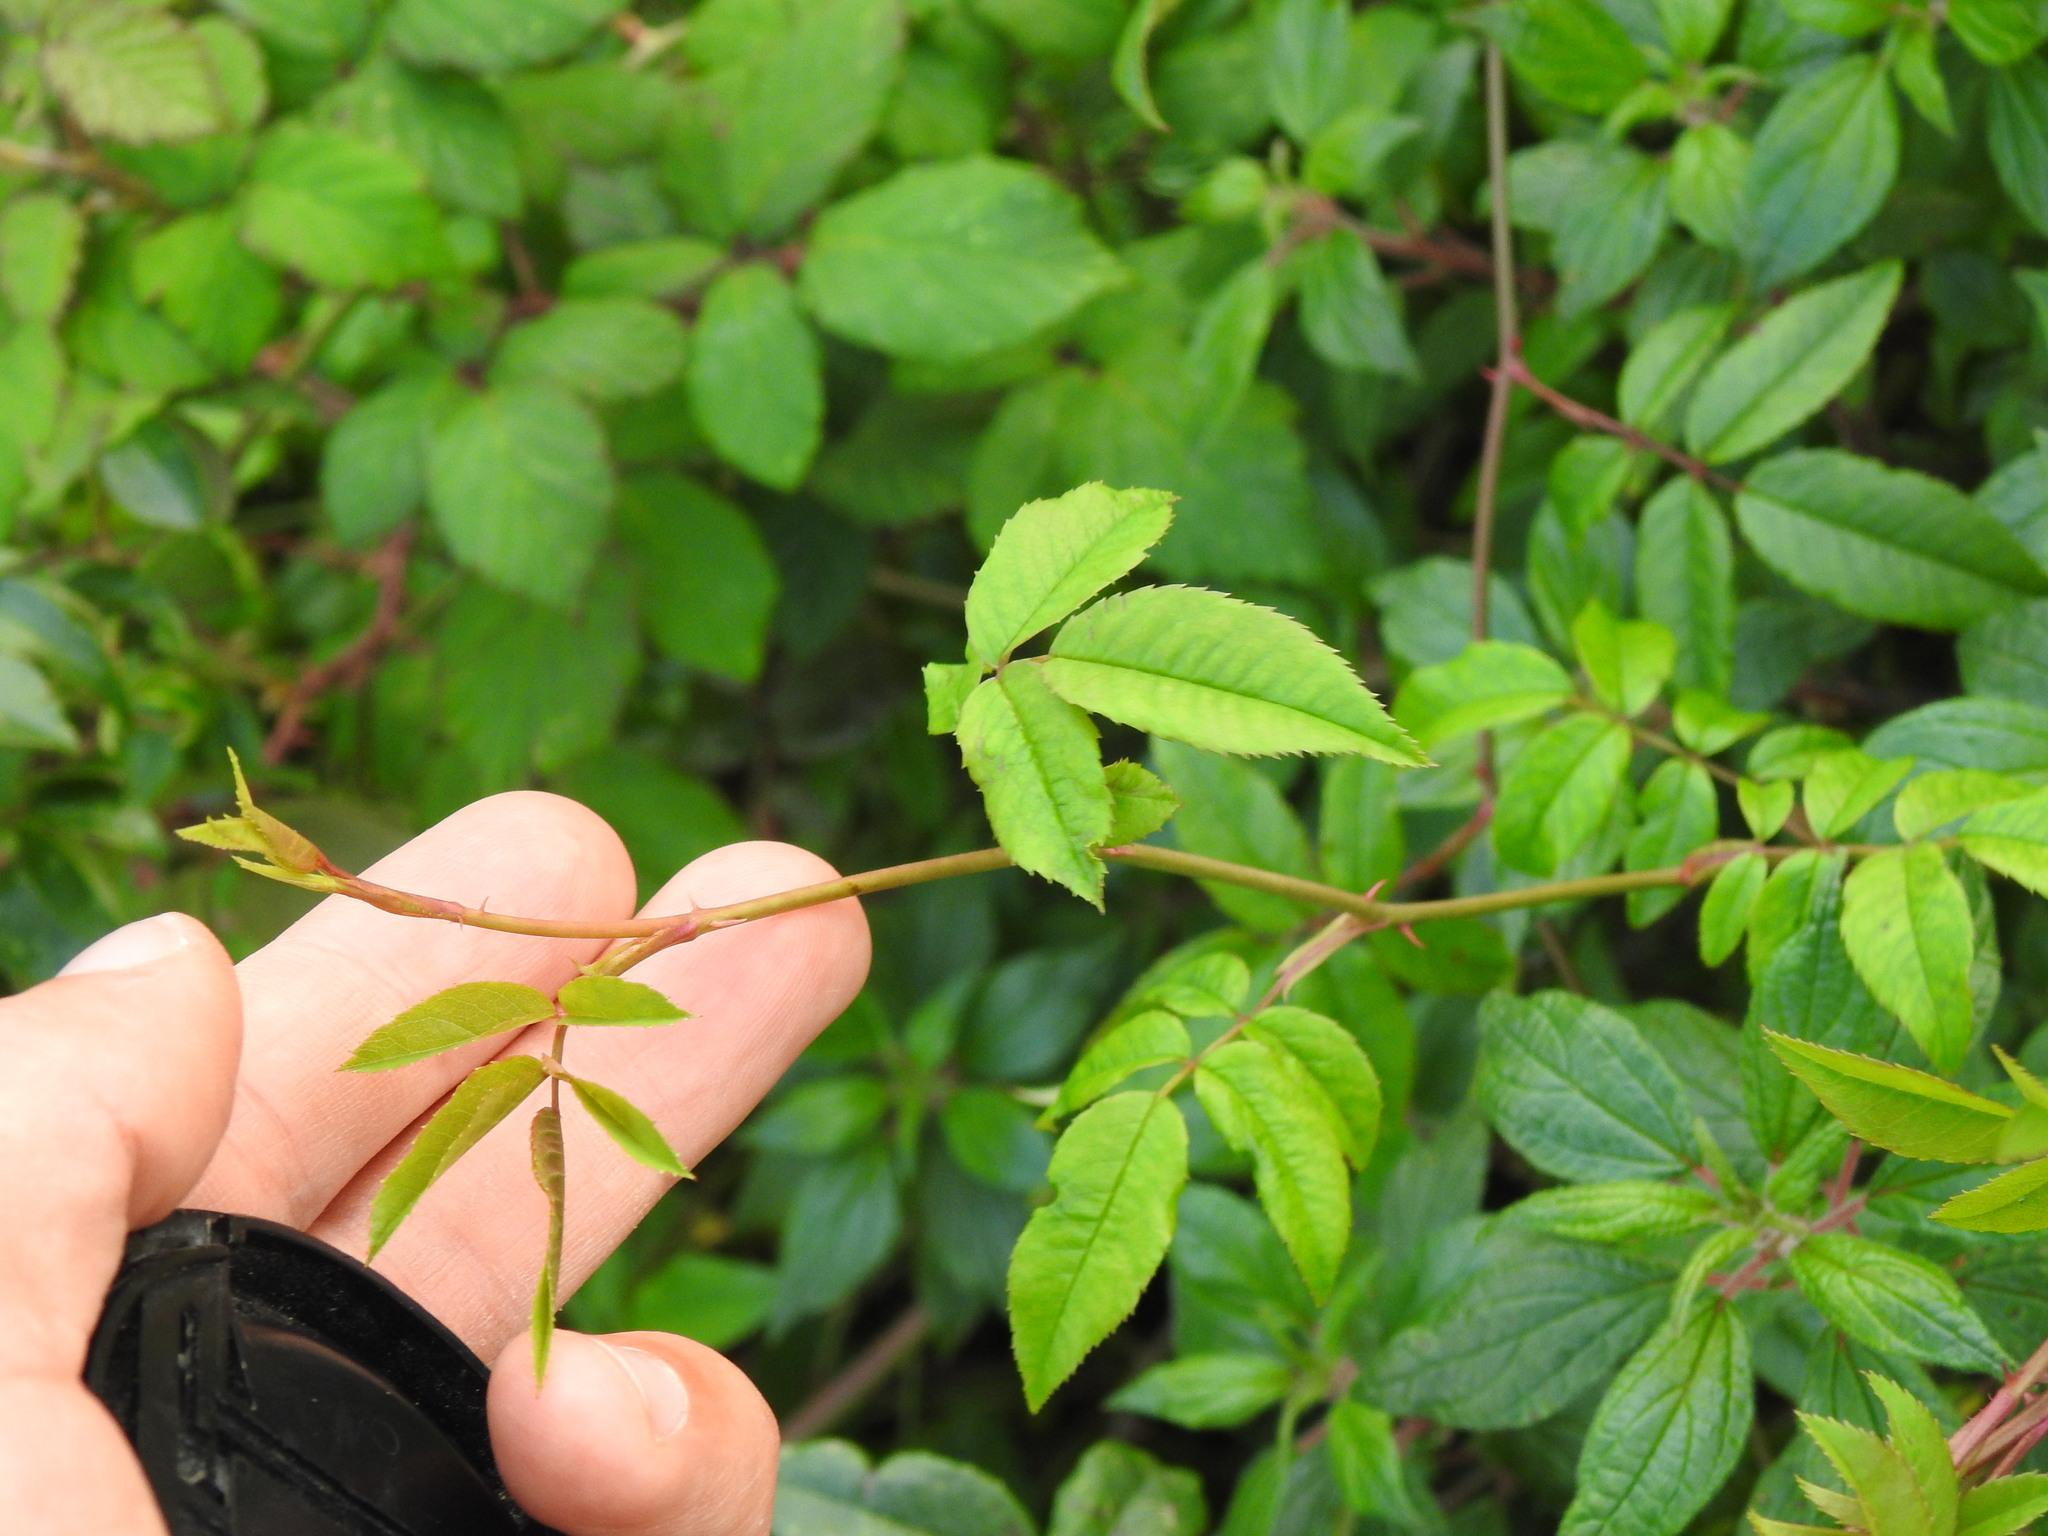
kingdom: Plantae
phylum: Tracheophyta
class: Magnoliopsida
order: Rosales
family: Rosaceae
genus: Rosa
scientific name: Rosa sempervirens
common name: Evergreen rose
